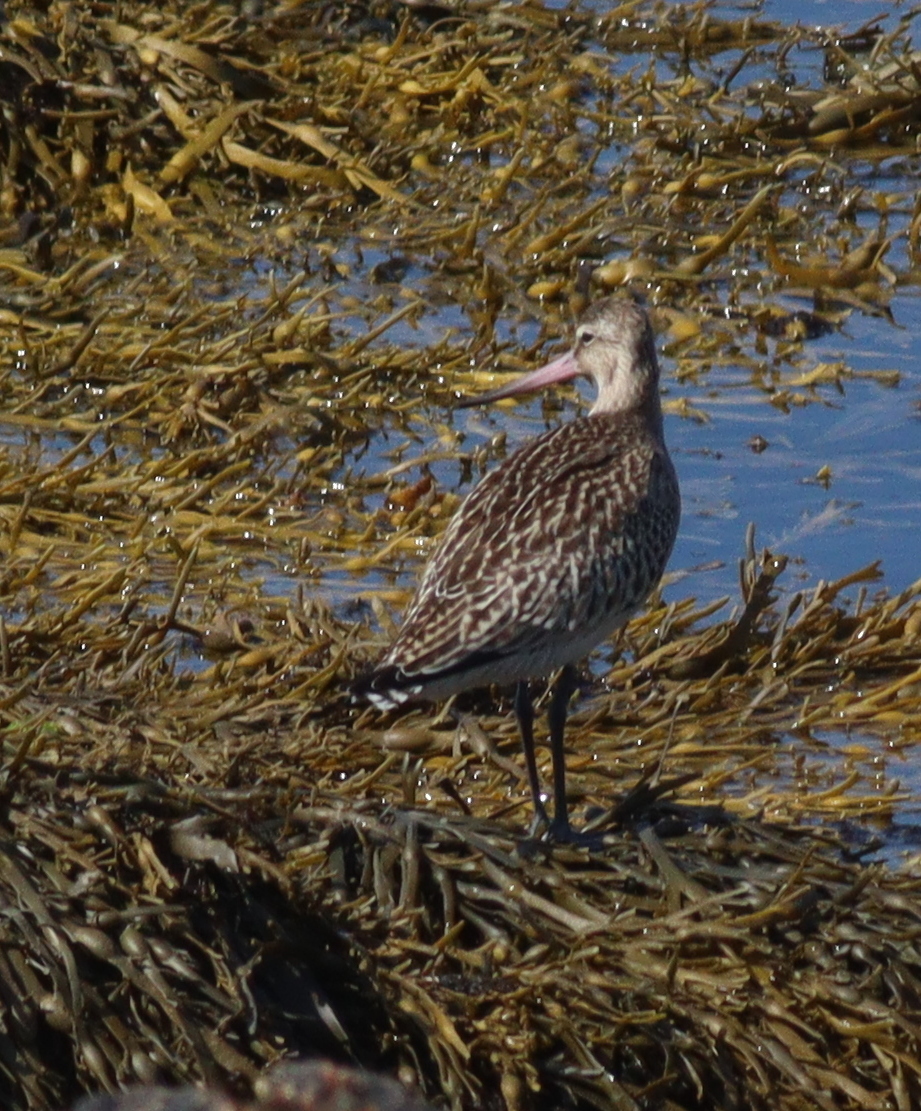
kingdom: Animalia
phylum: Chordata
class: Aves
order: Charadriiformes
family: Scolopacidae
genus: Limosa
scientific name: Limosa lapponica
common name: Bar-tailed godwit
